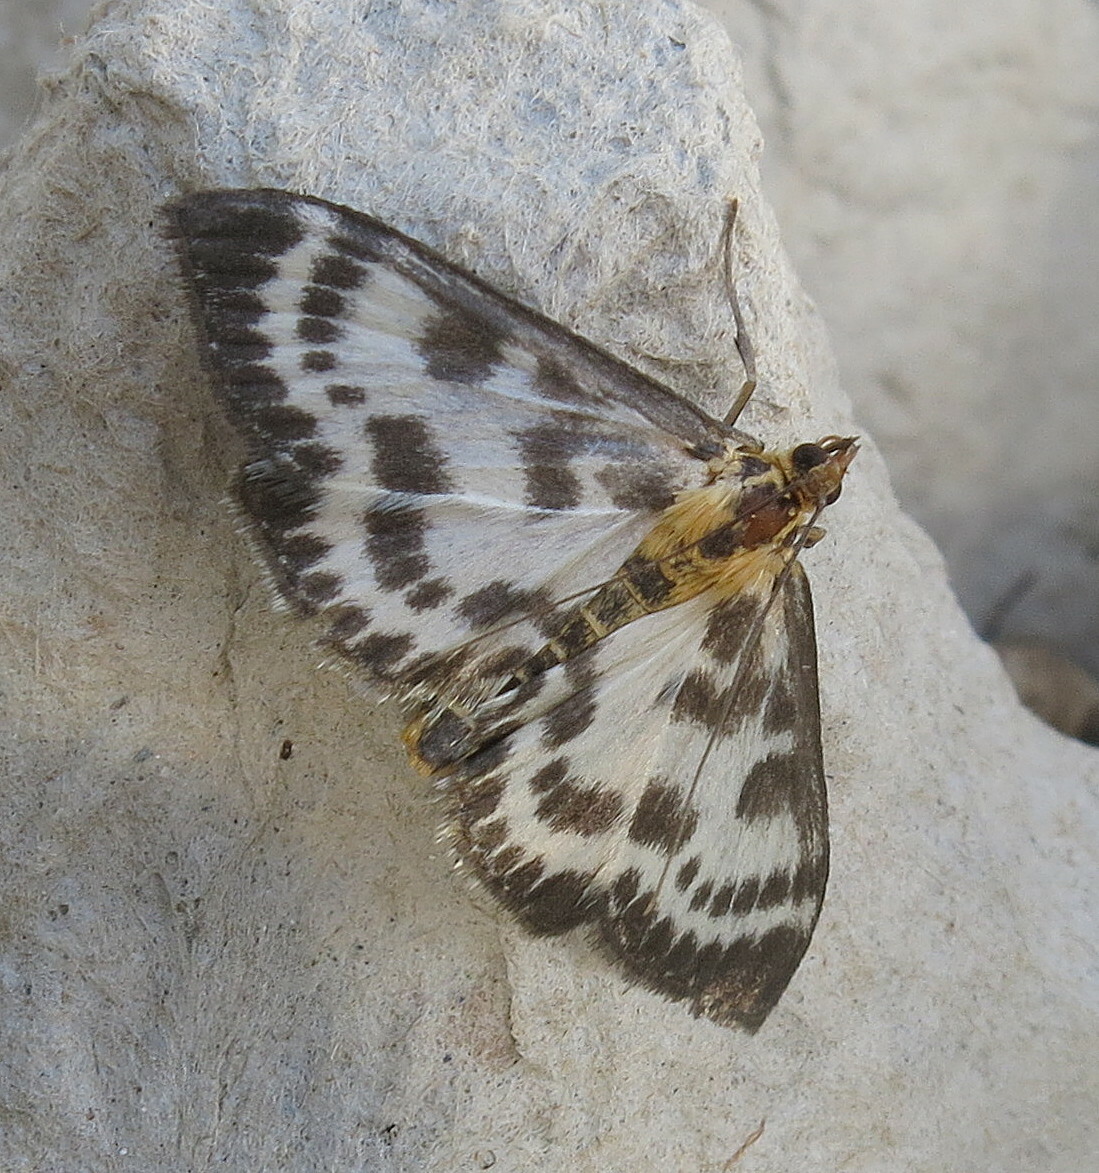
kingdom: Animalia
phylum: Arthropoda
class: Insecta
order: Lepidoptera
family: Crambidae
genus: Anania
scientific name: Anania hortulata
